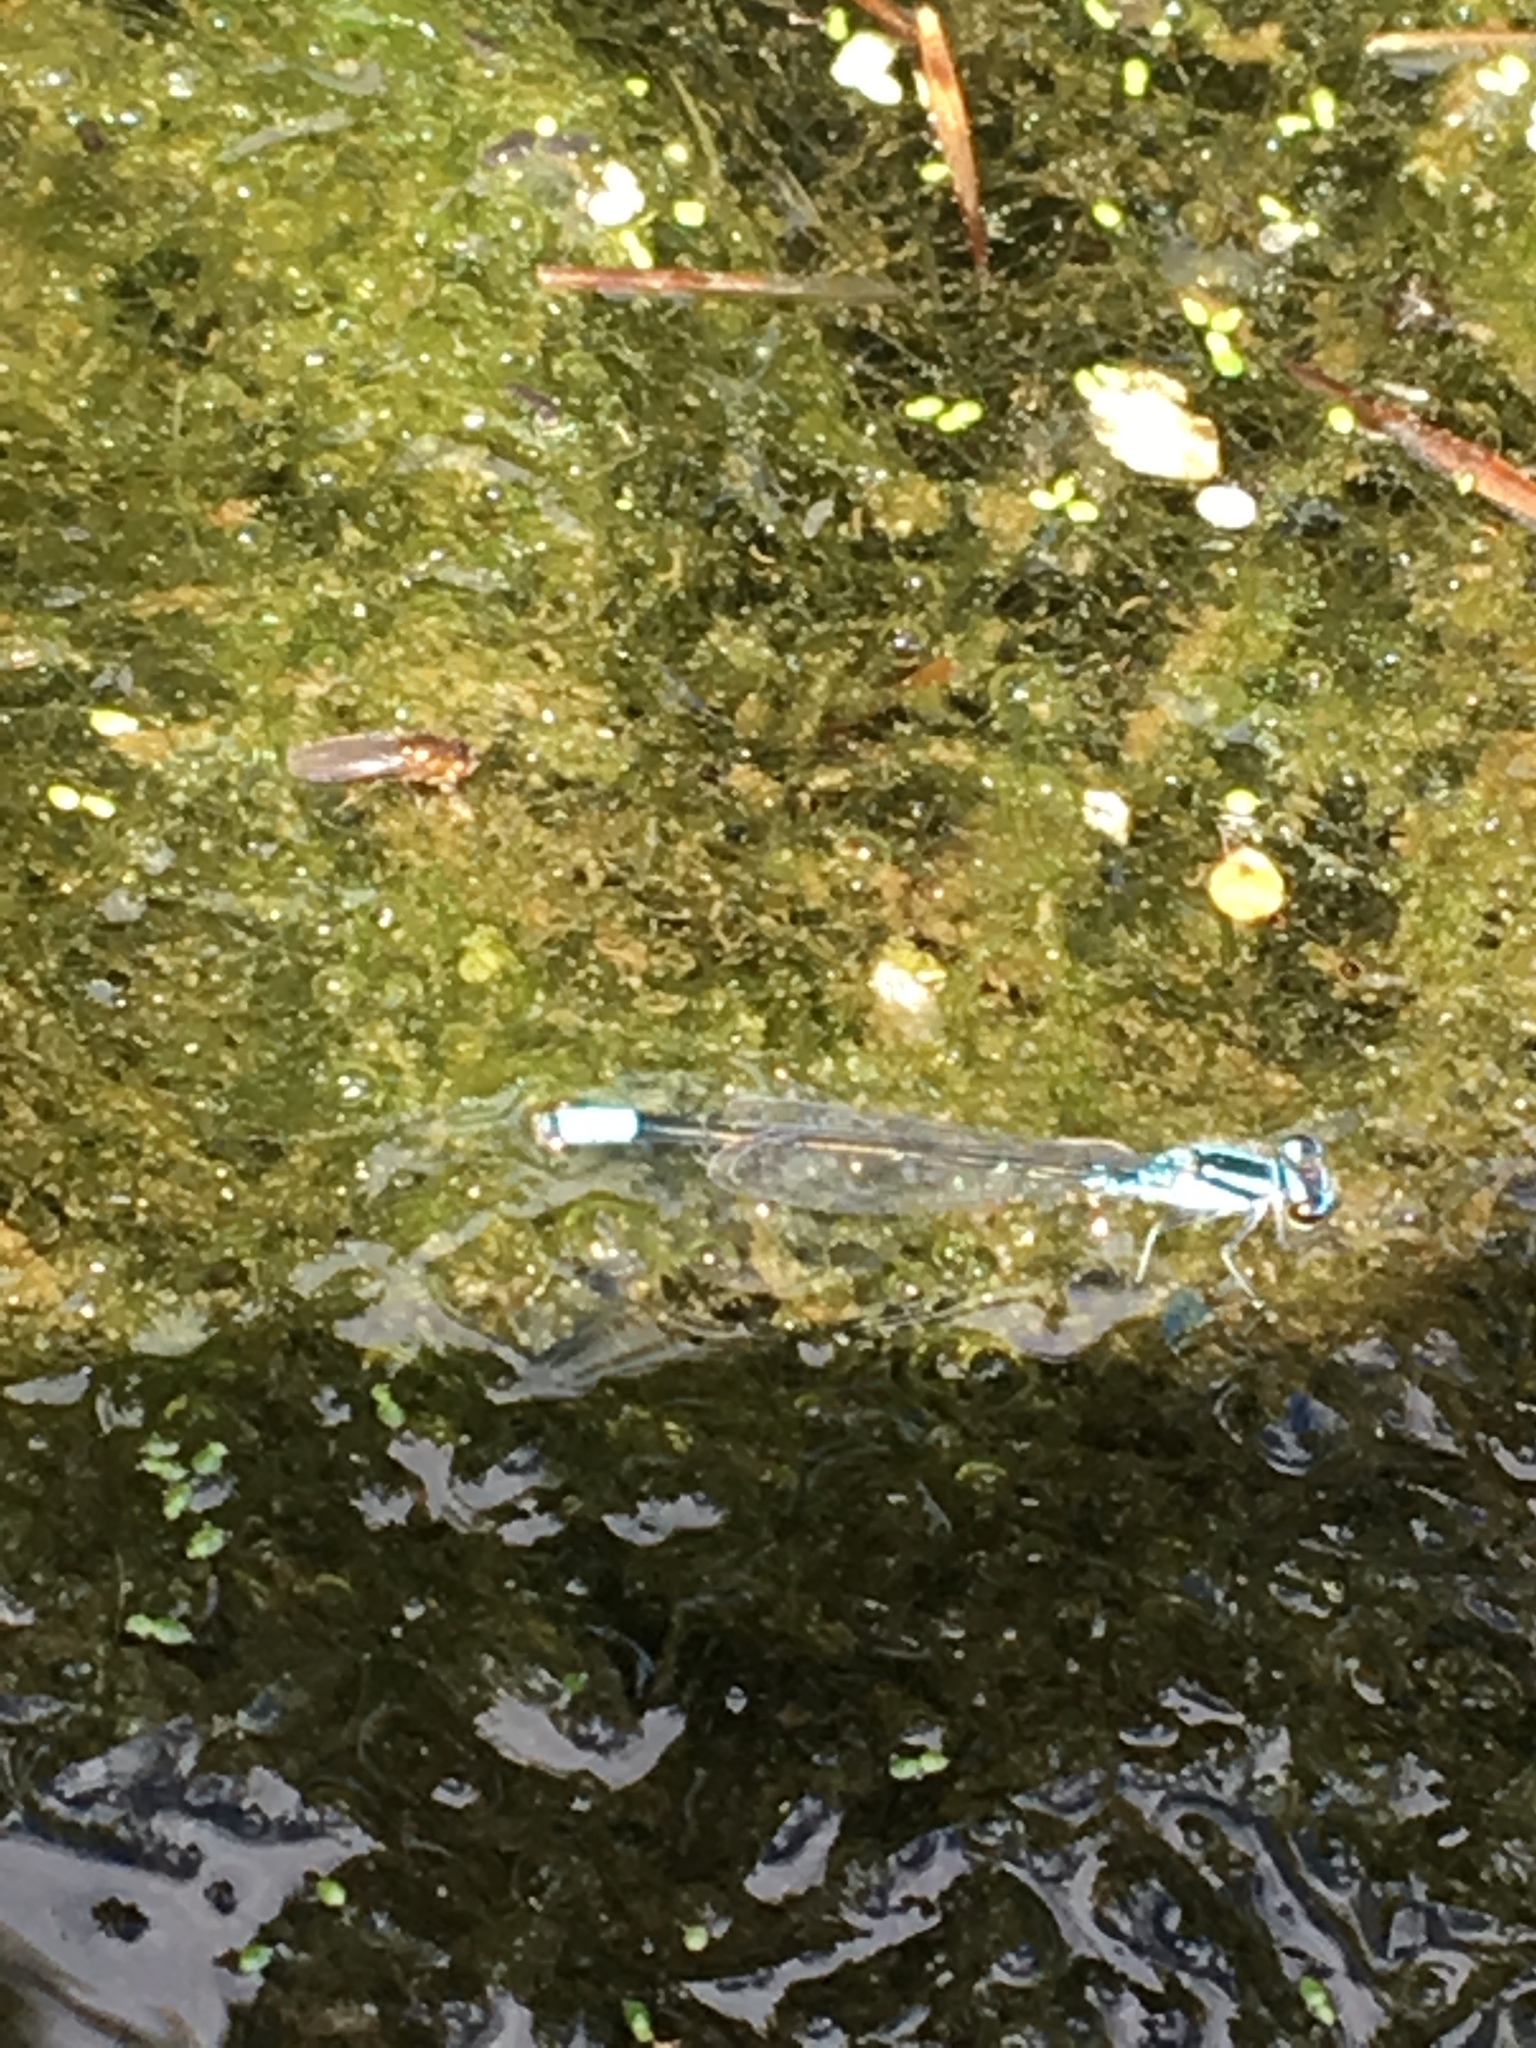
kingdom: Animalia
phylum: Arthropoda
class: Insecta
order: Odonata
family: Coenagrionidae
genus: Enallagma
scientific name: Enallagma geminatum
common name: Skimming bluet
